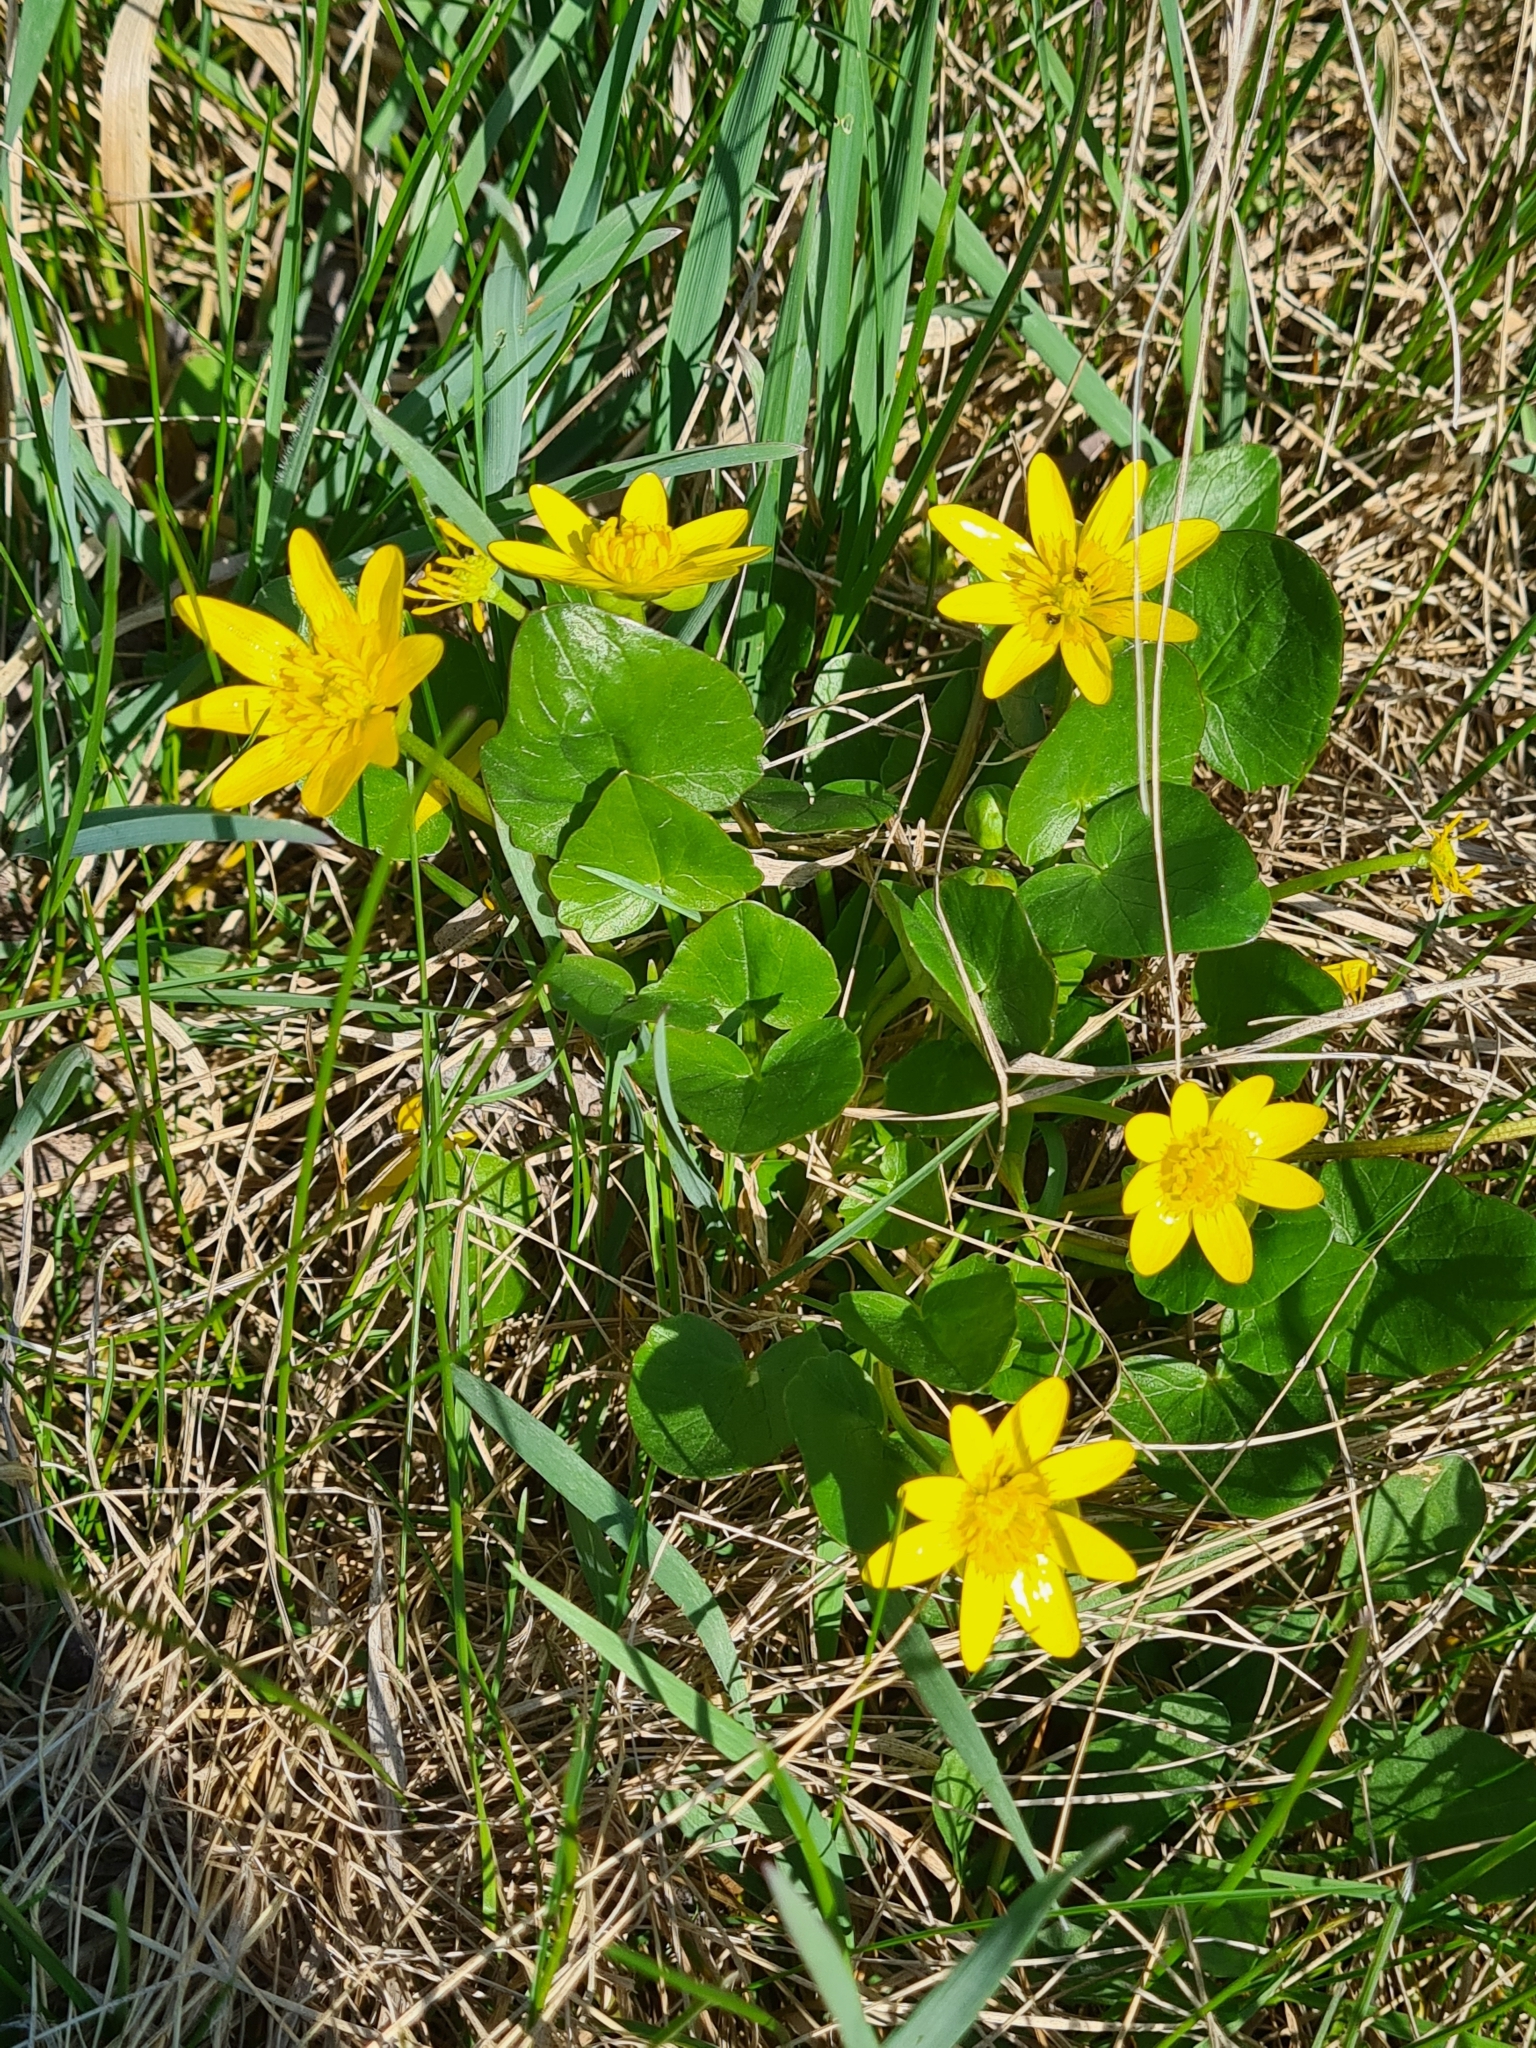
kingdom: Plantae
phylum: Tracheophyta
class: Magnoliopsida
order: Ranunculales
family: Ranunculaceae
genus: Ficaria
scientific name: Ficaria verna
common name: Lesser celandine
